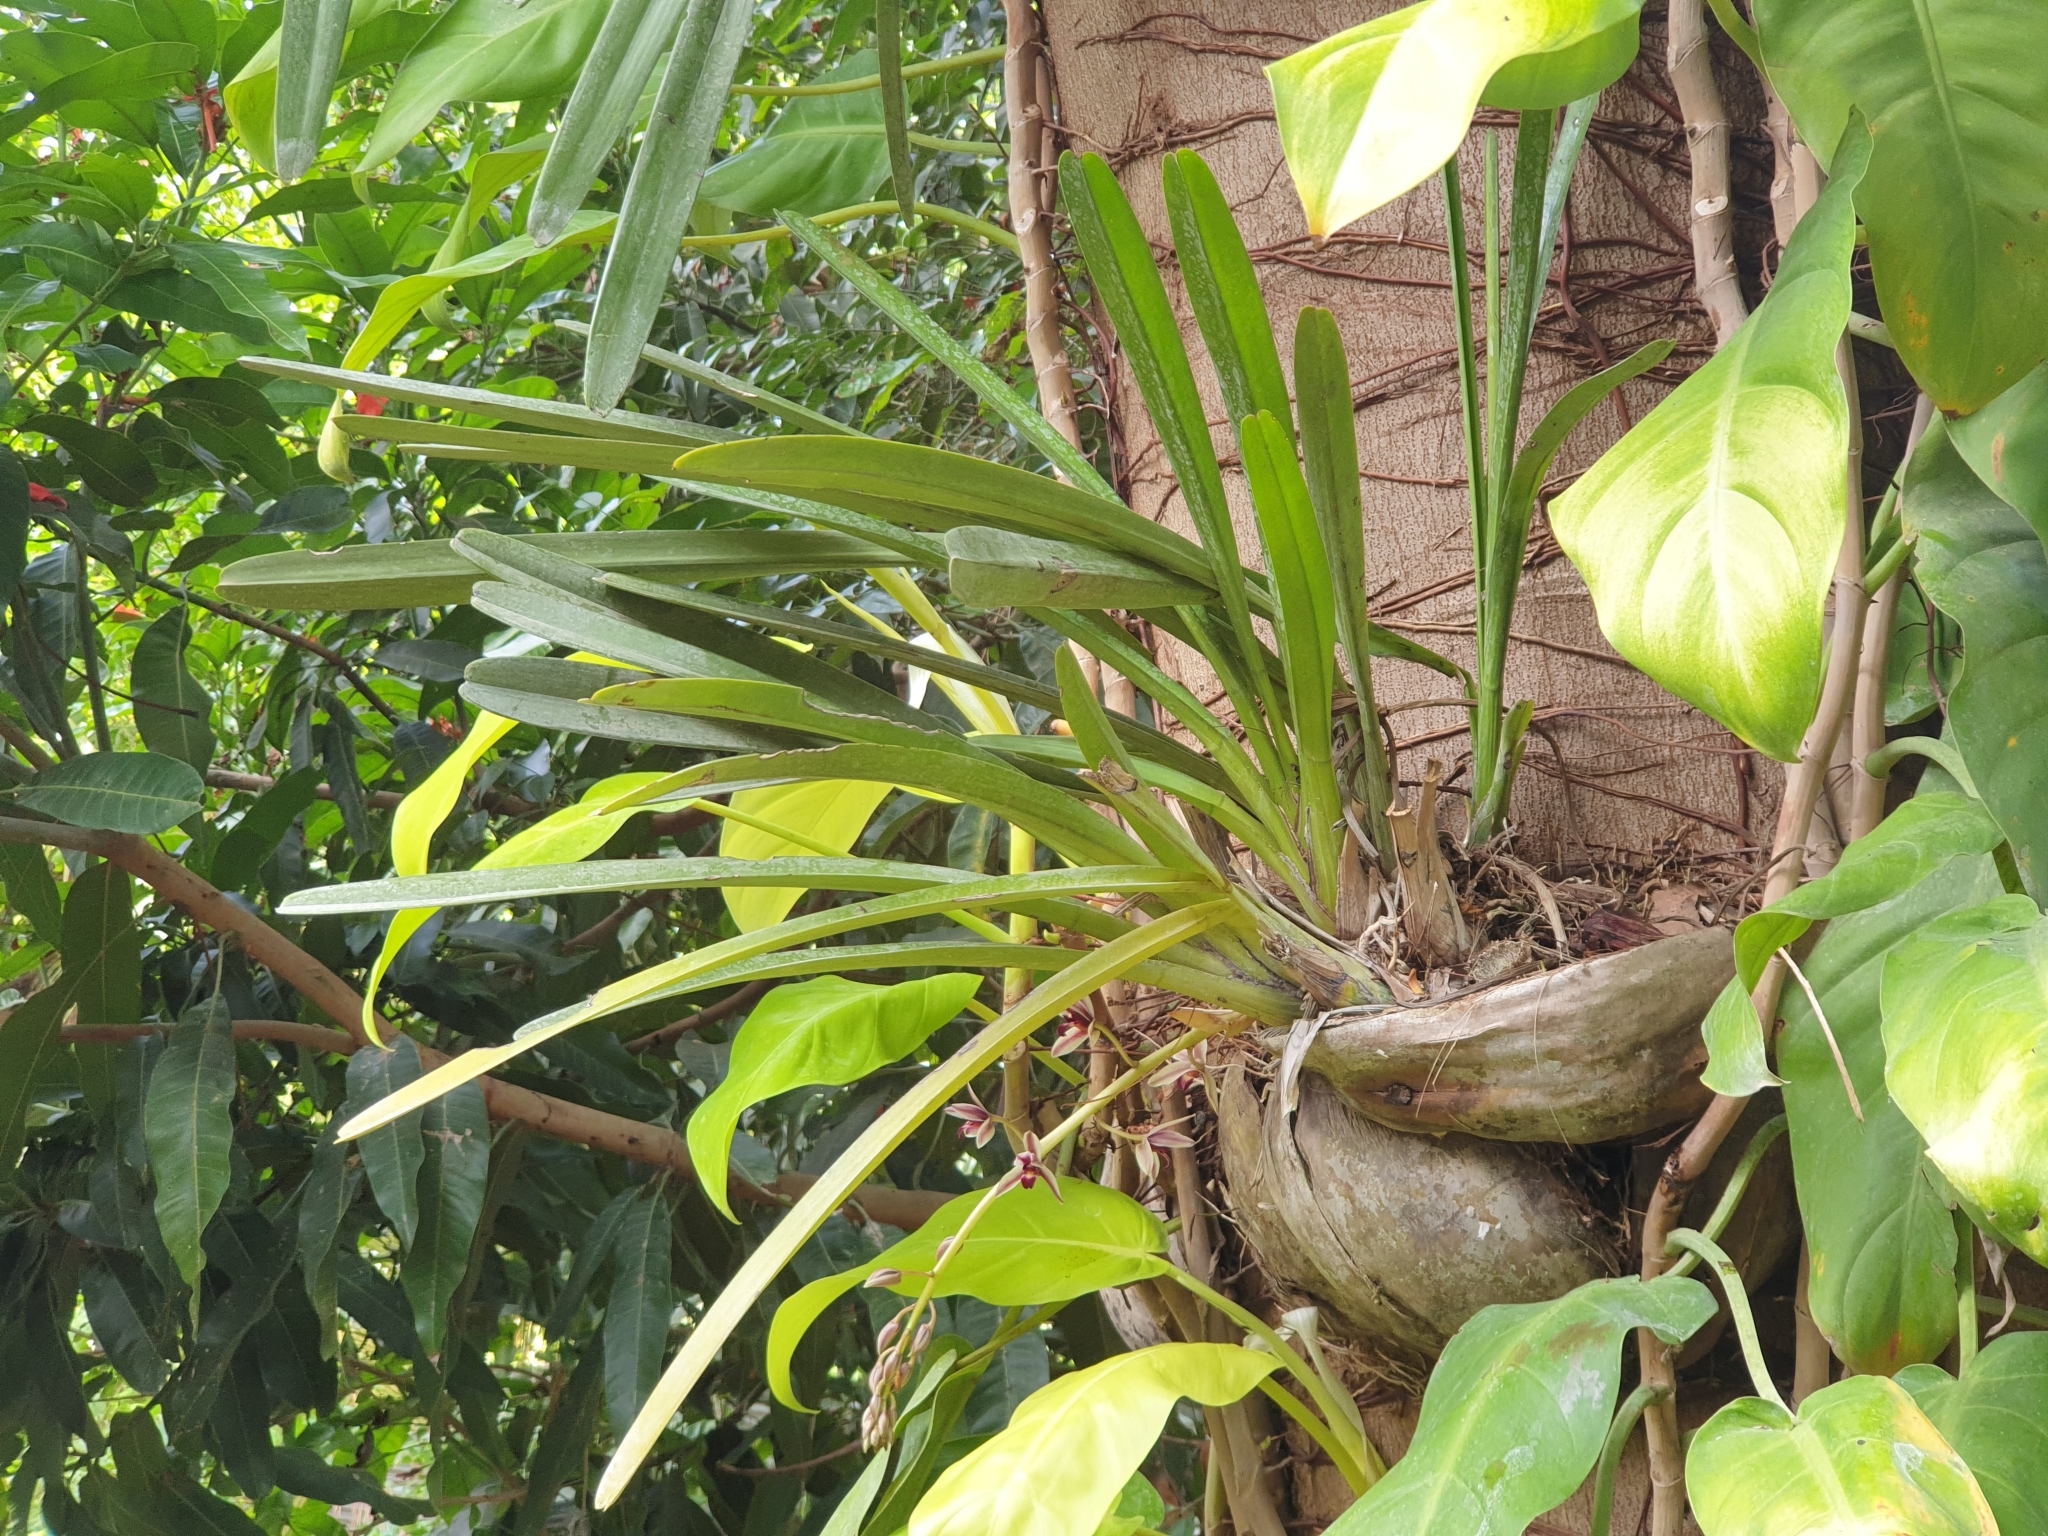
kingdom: Plantae
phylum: Tracheophyta
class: Liliopsida
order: Asparagales
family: Orchidaceae
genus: Cymbidium
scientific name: Cymbidium aloifolium
